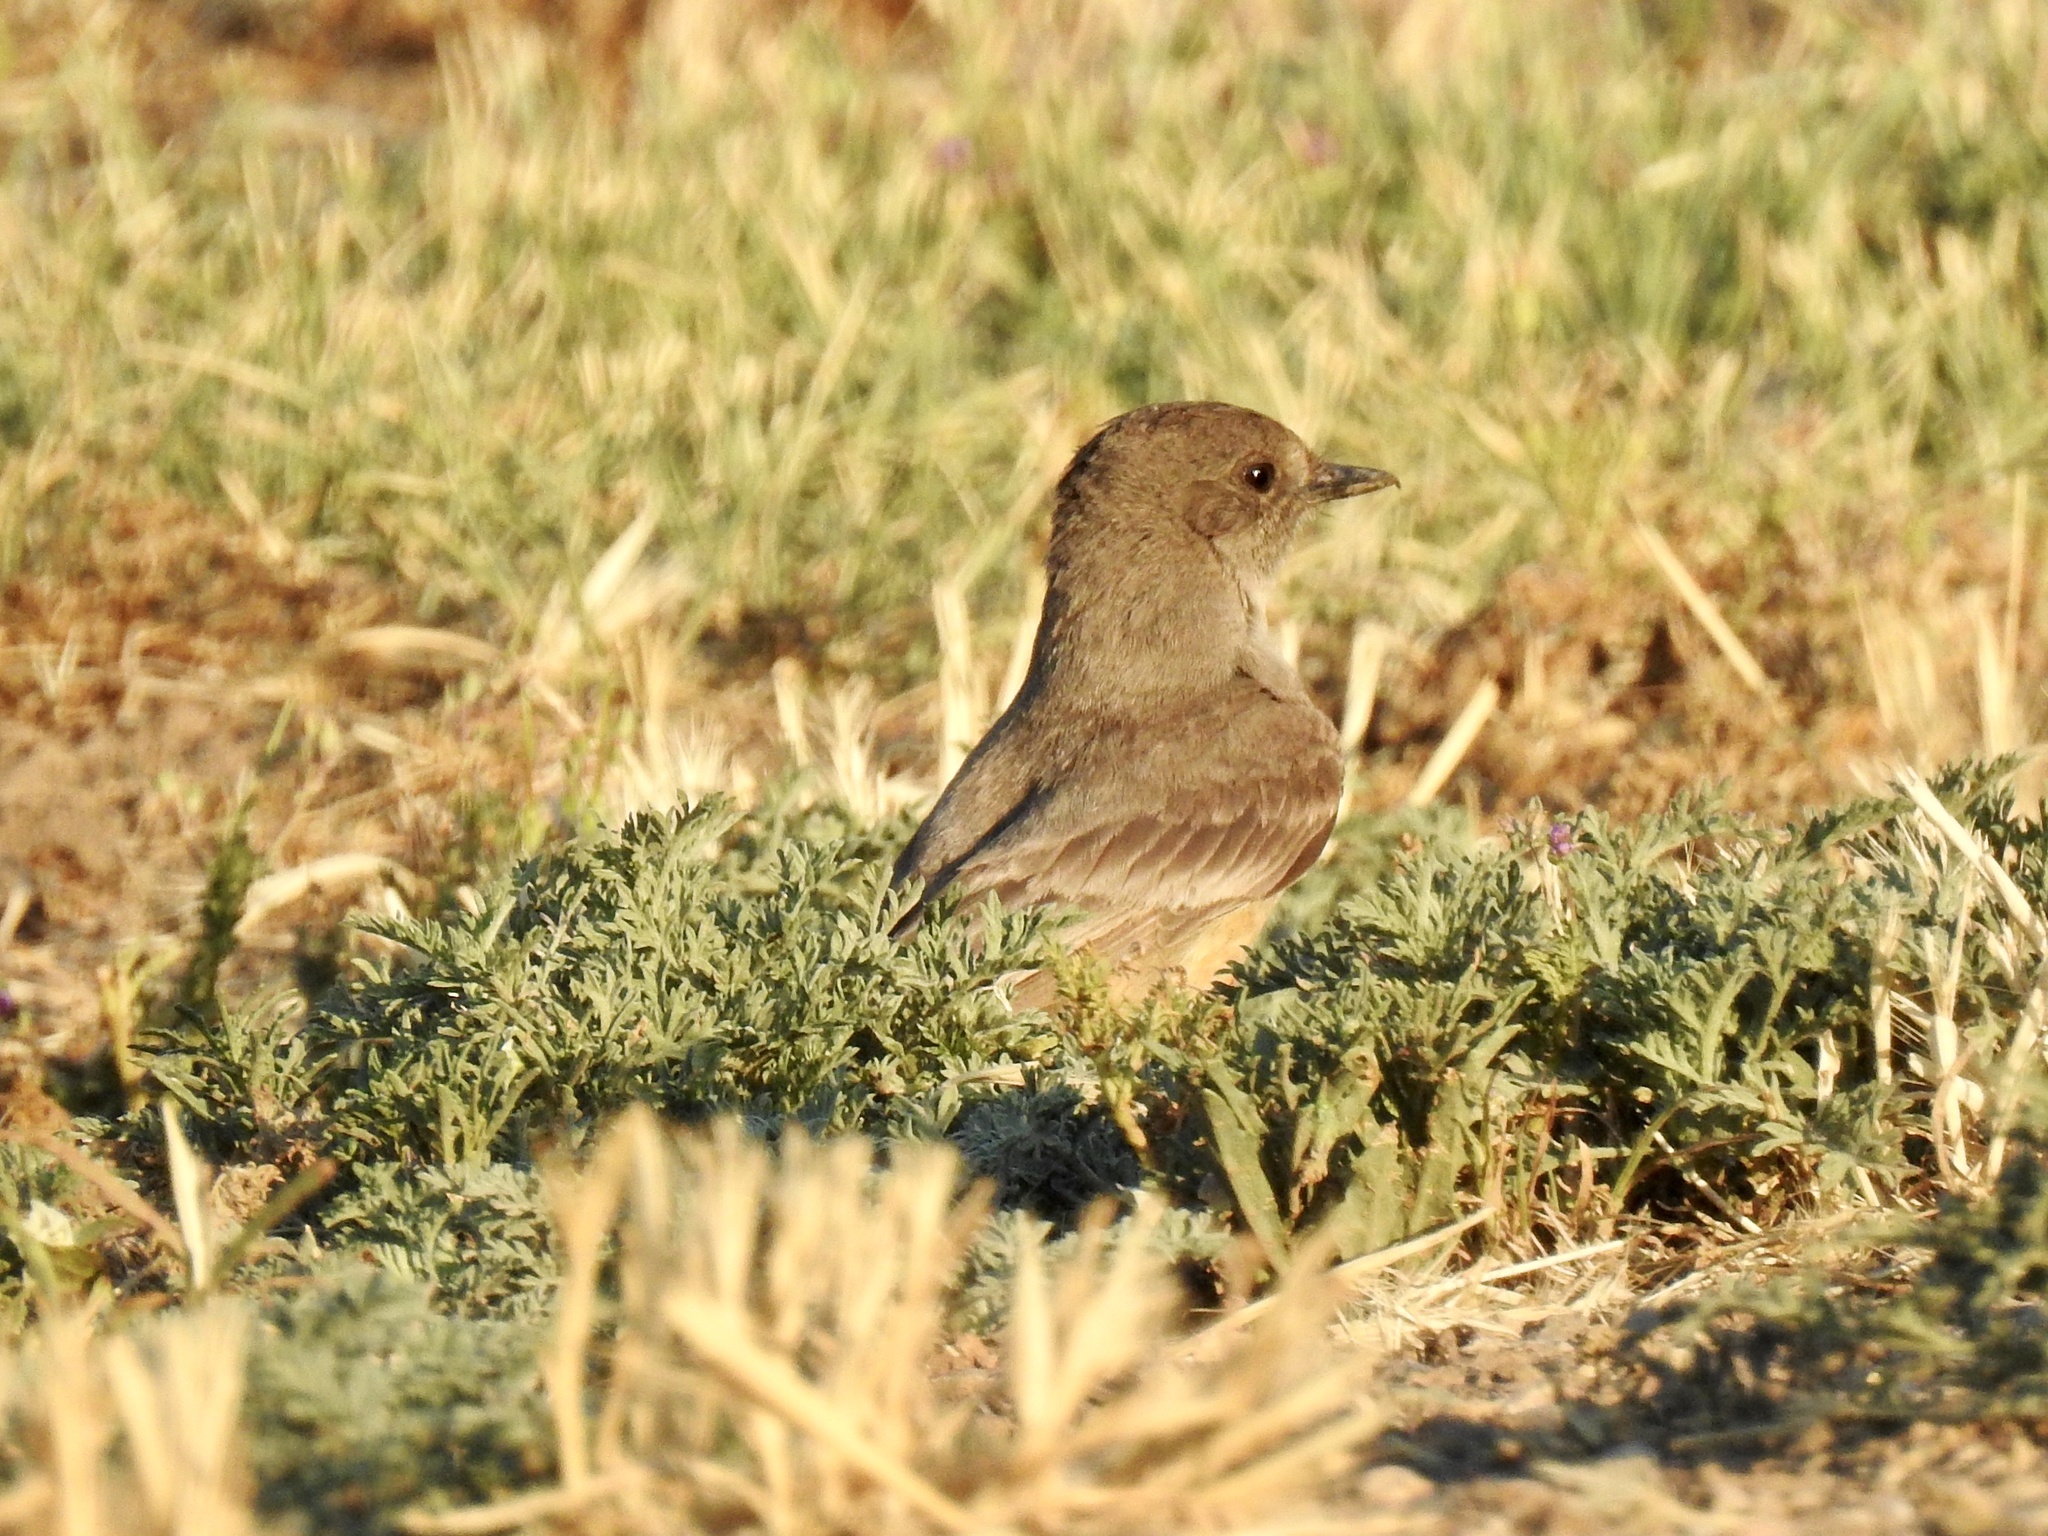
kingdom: Animalia
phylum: Chordata
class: Aves
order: Passeriformes
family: Tyrannidae
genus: Sayornis
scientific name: Sayornis saya
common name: Say's phoebe
